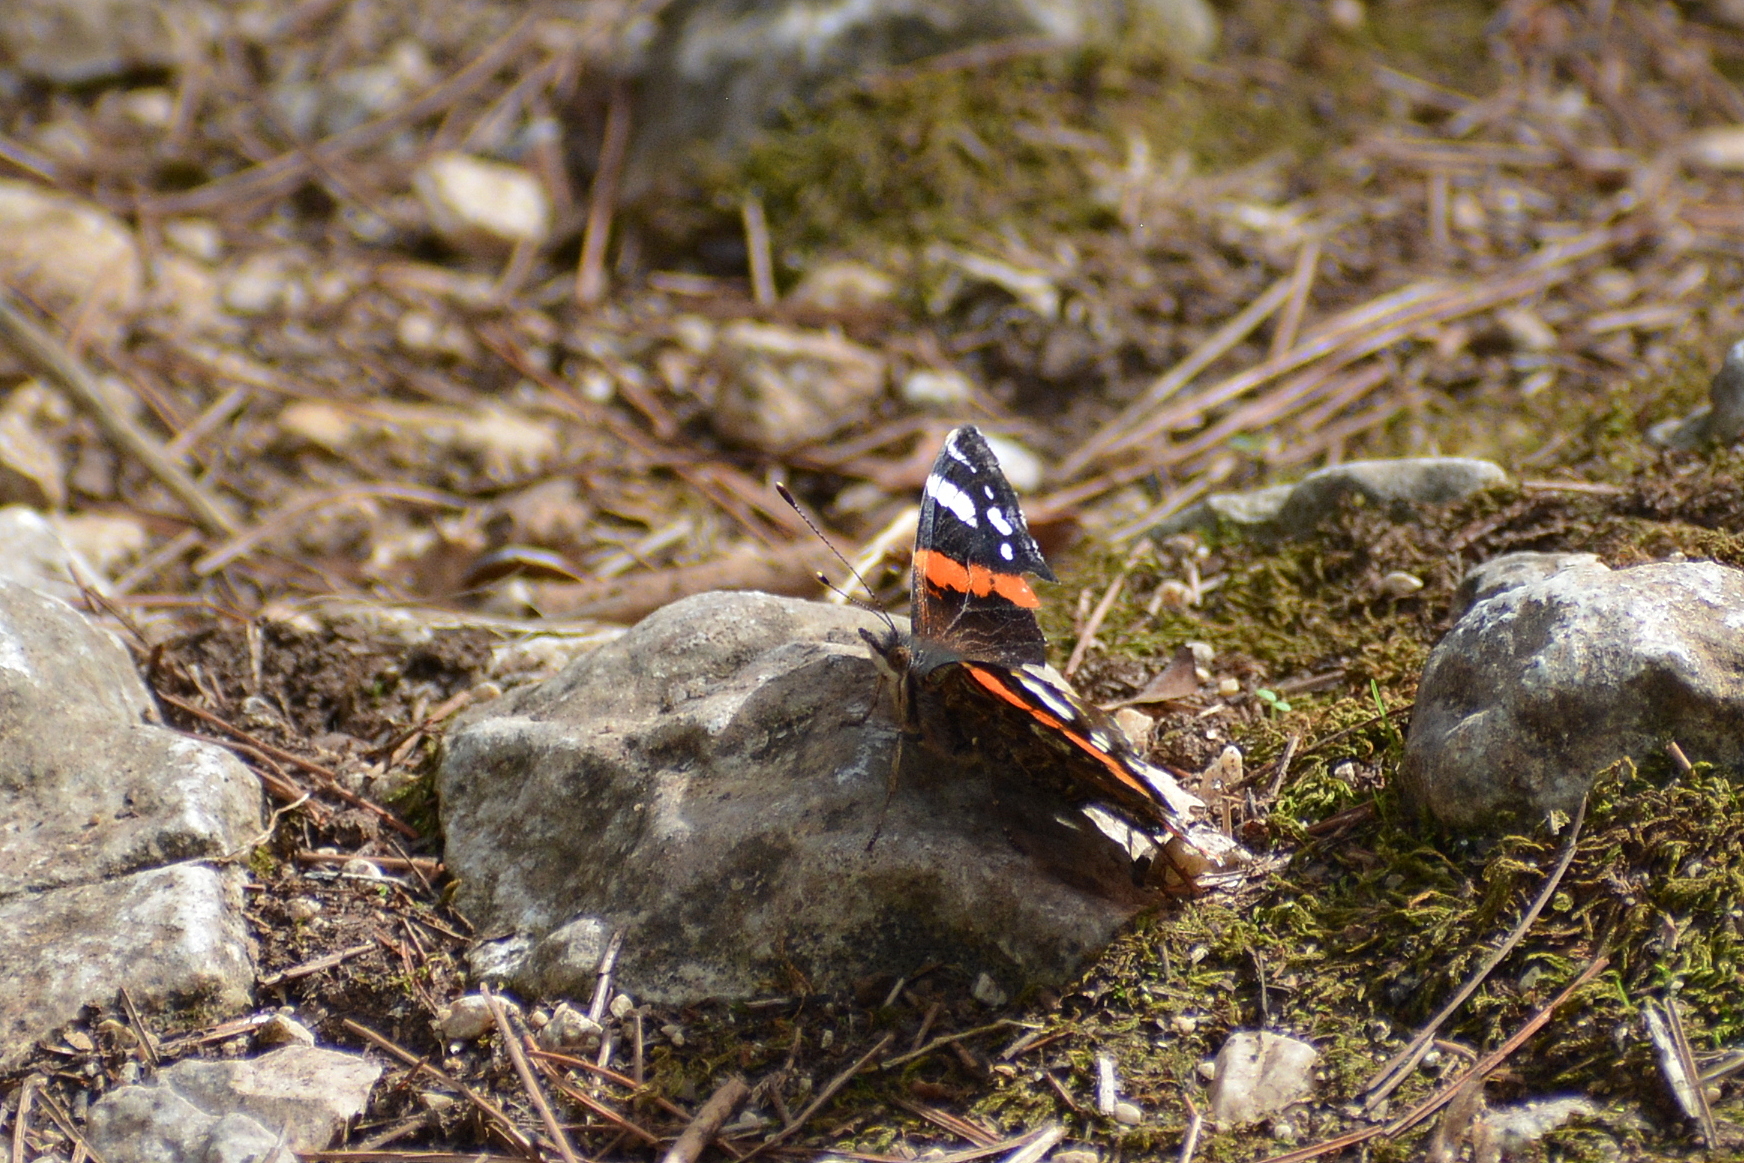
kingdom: Animalia
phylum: Arthropoda
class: Insecta
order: Lepidoptera
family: Nymphalidae
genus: Vanessa
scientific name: Vanessa atalanta
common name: Red admiral
